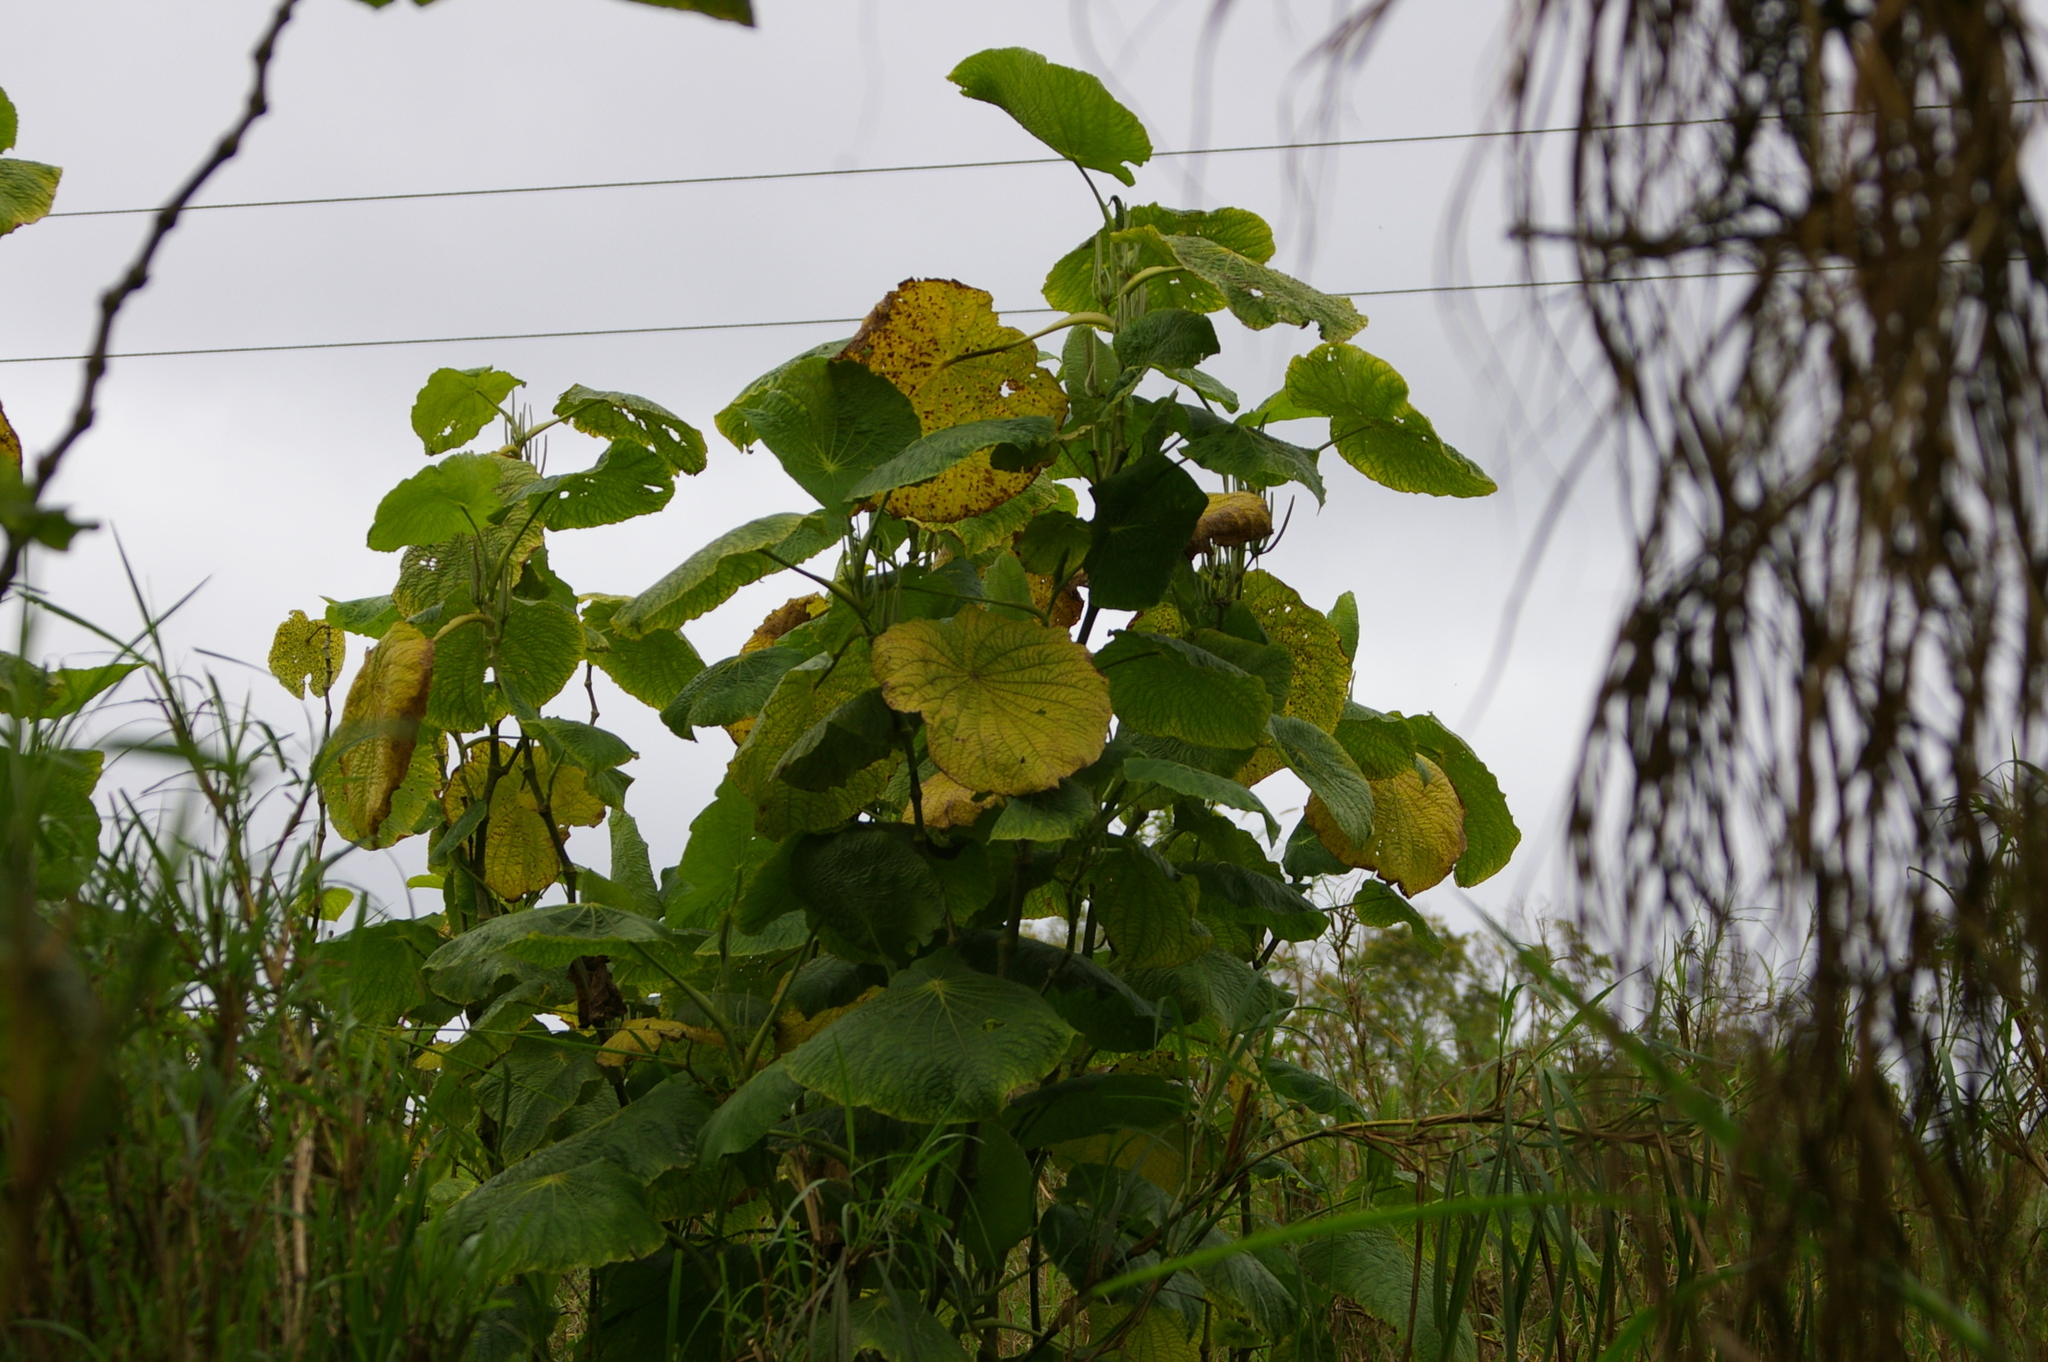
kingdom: Plantae
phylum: Tracheophyta
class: Magnoliopsida
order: Piperales
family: Piperaceae
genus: Piper
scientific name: Piper peltatum
